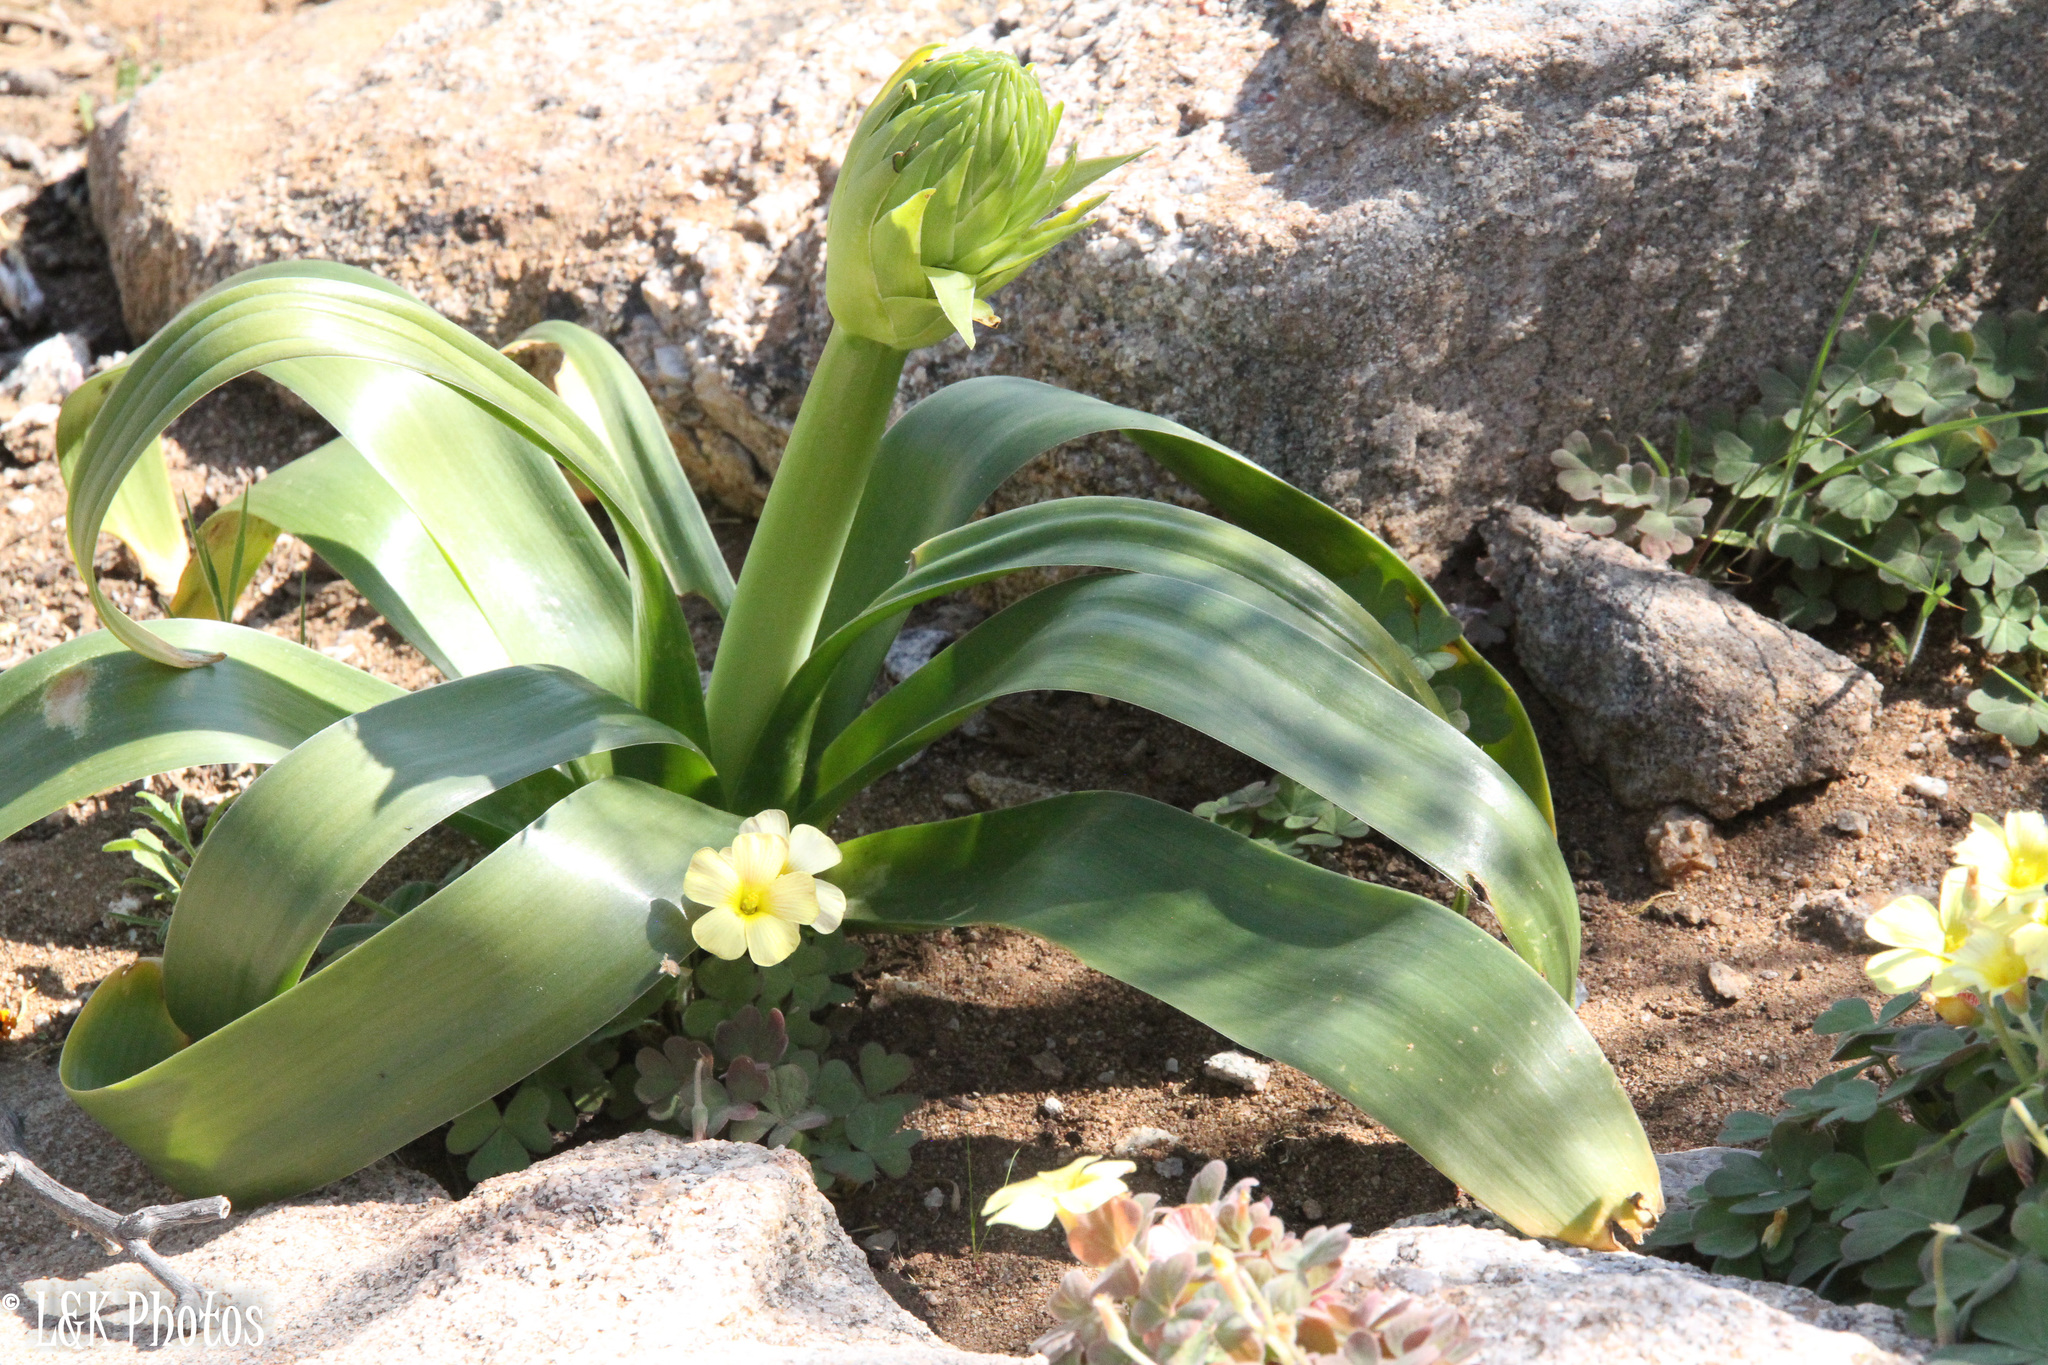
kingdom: Plantae
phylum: Tracheophyta
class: Liliopsida
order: Asparagales
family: Asparagaceae
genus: Ornithogalum
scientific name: Ornithogalum xanthochlorum
